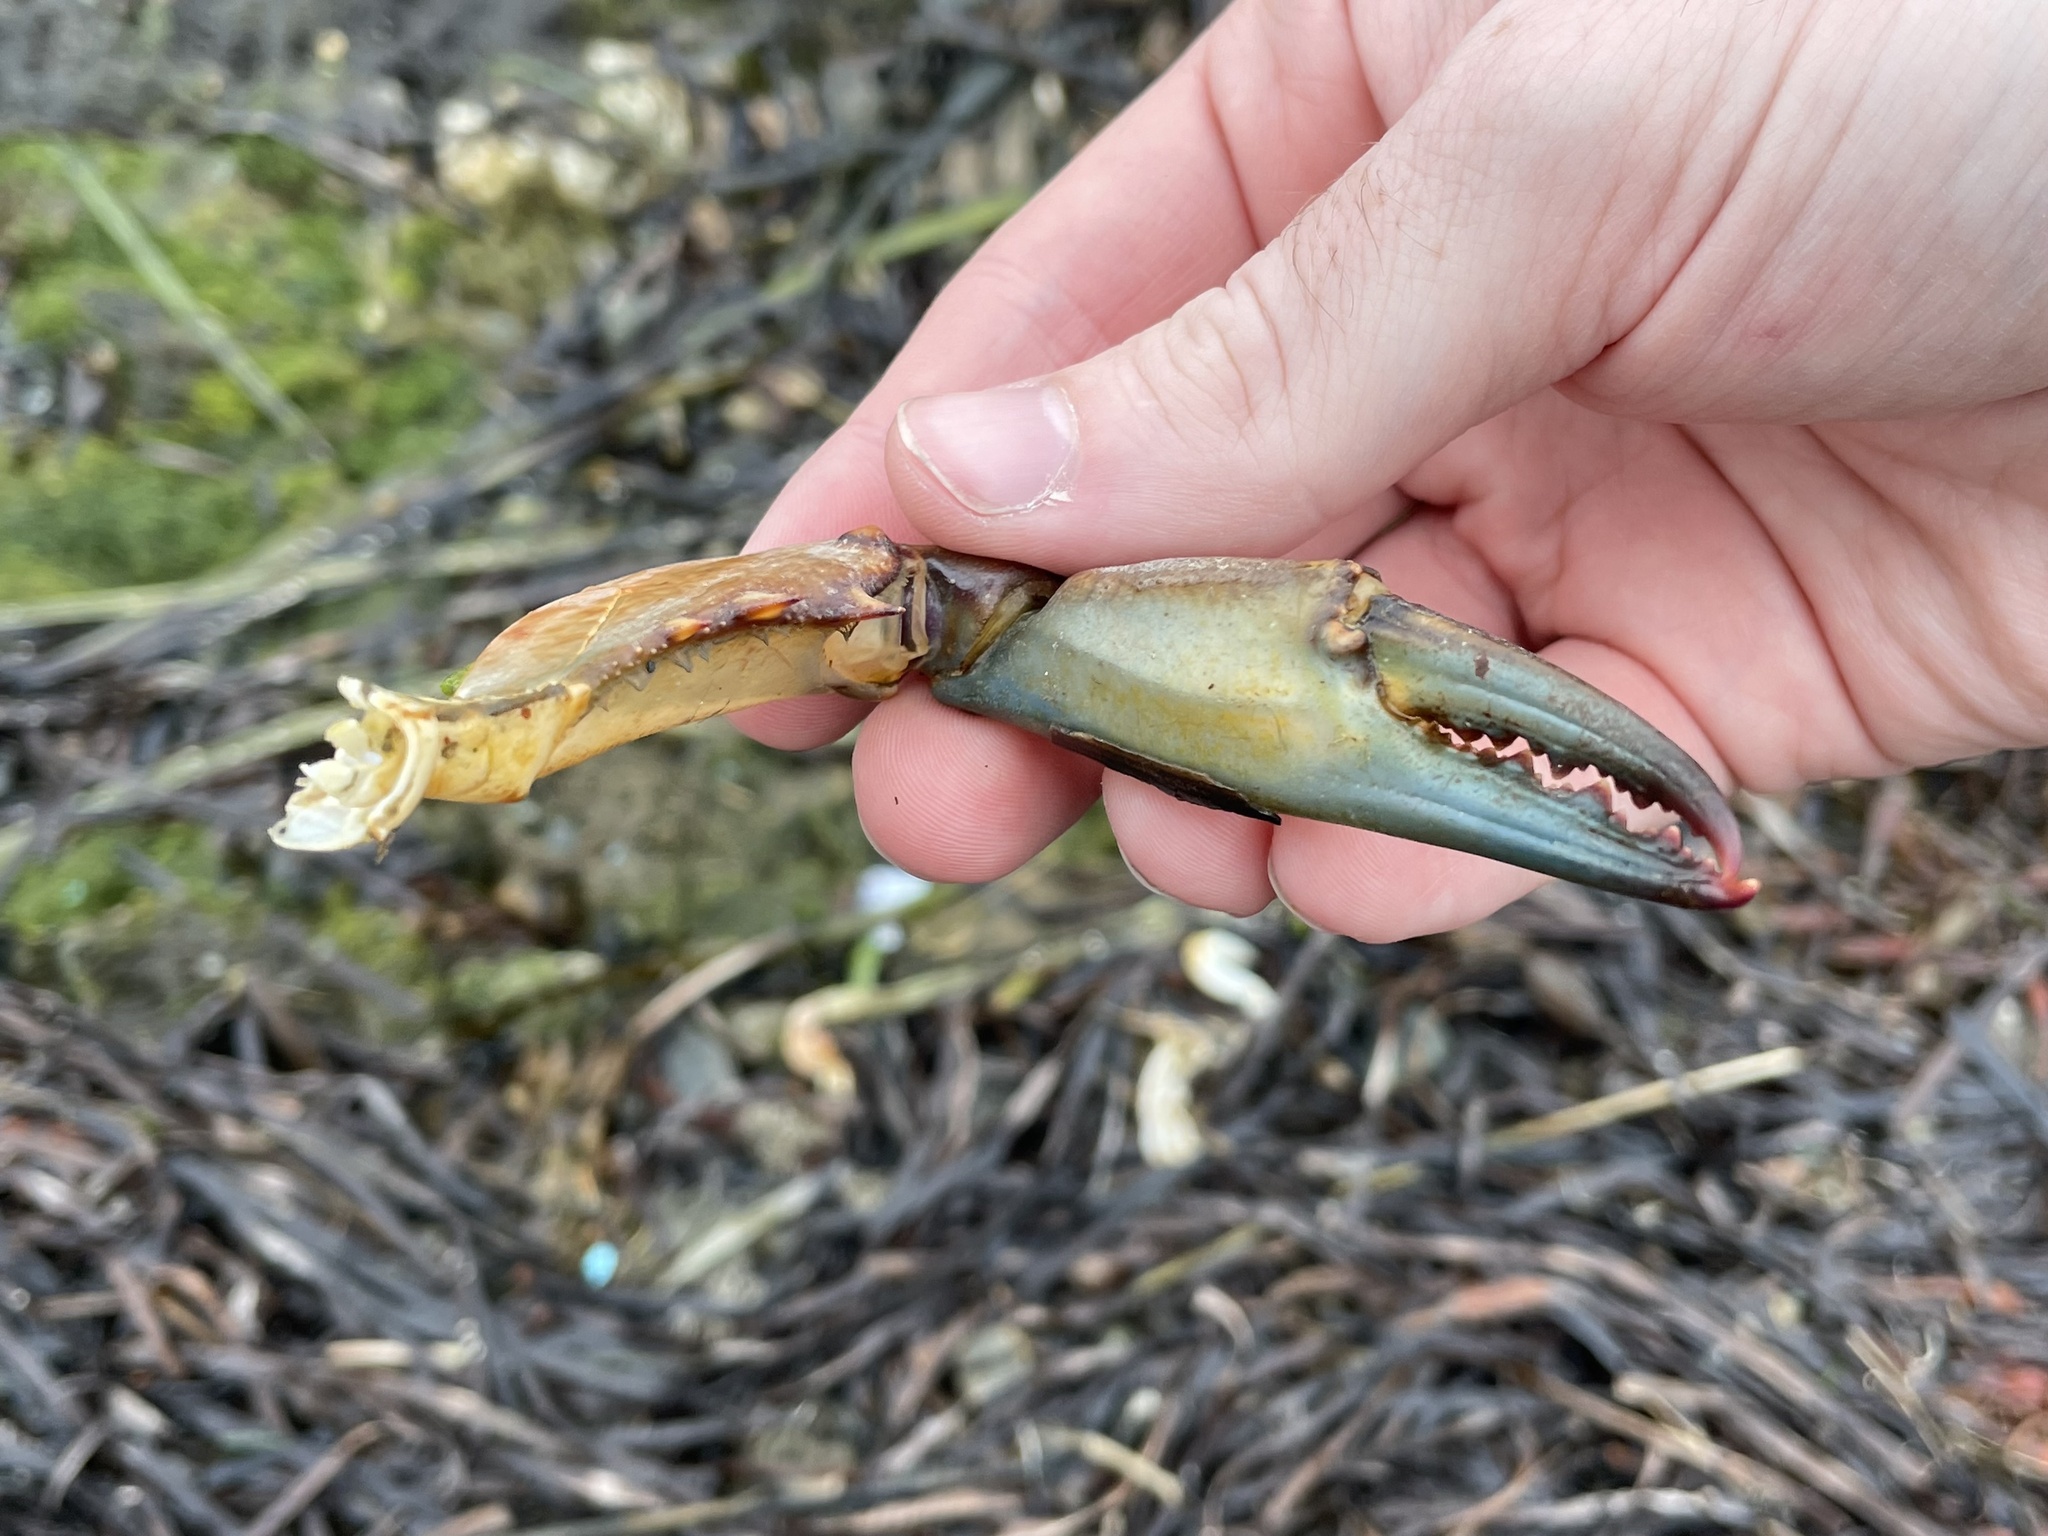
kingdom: Animalia
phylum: Arthropoda
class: Malacostraca
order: Decapoda
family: Portunidae
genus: Callinectes
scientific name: Callinectes sapidus
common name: Blue crab
